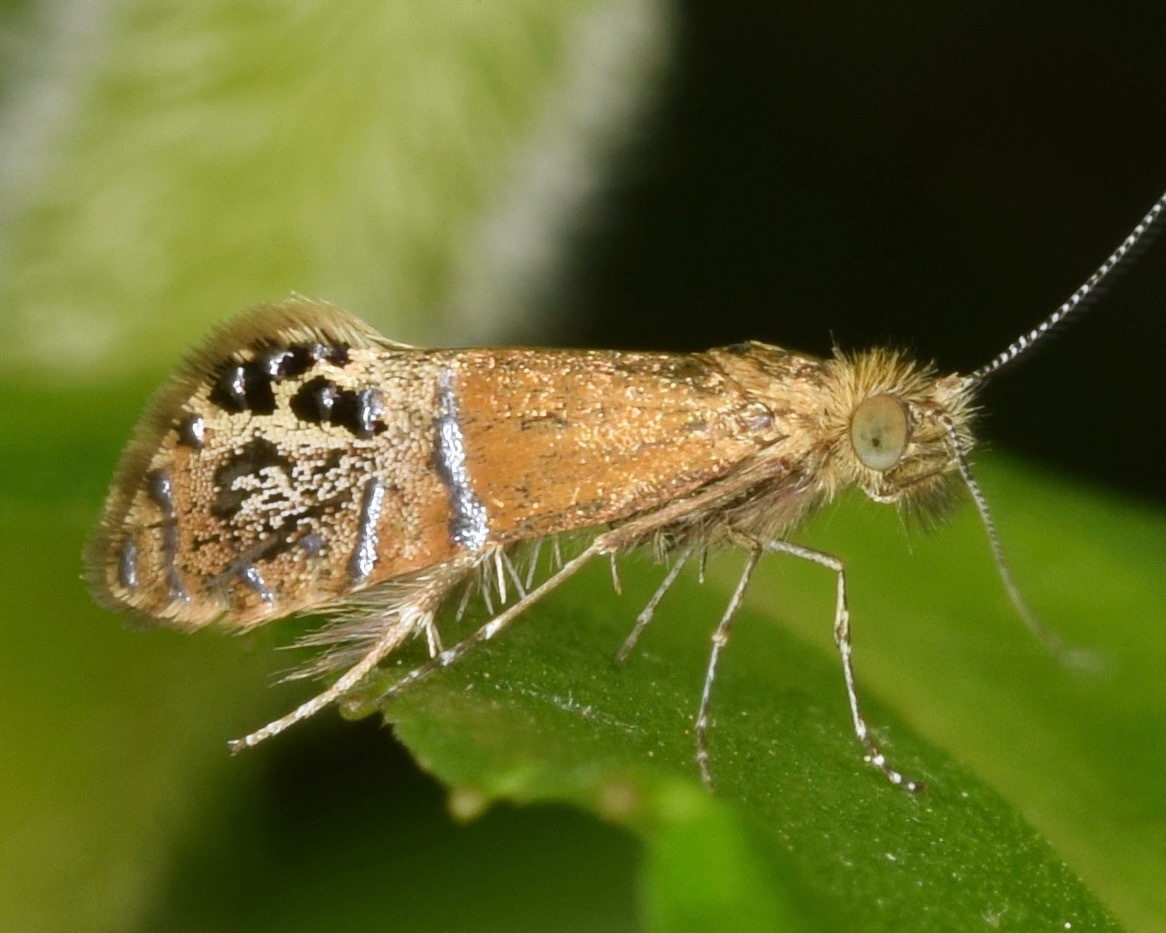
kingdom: Animalia
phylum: Arthropoda
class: Insecta
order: Lepidoptera
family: Adelidae
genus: Adela
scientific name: Adela ridingsella
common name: Ridings' fairy moth
